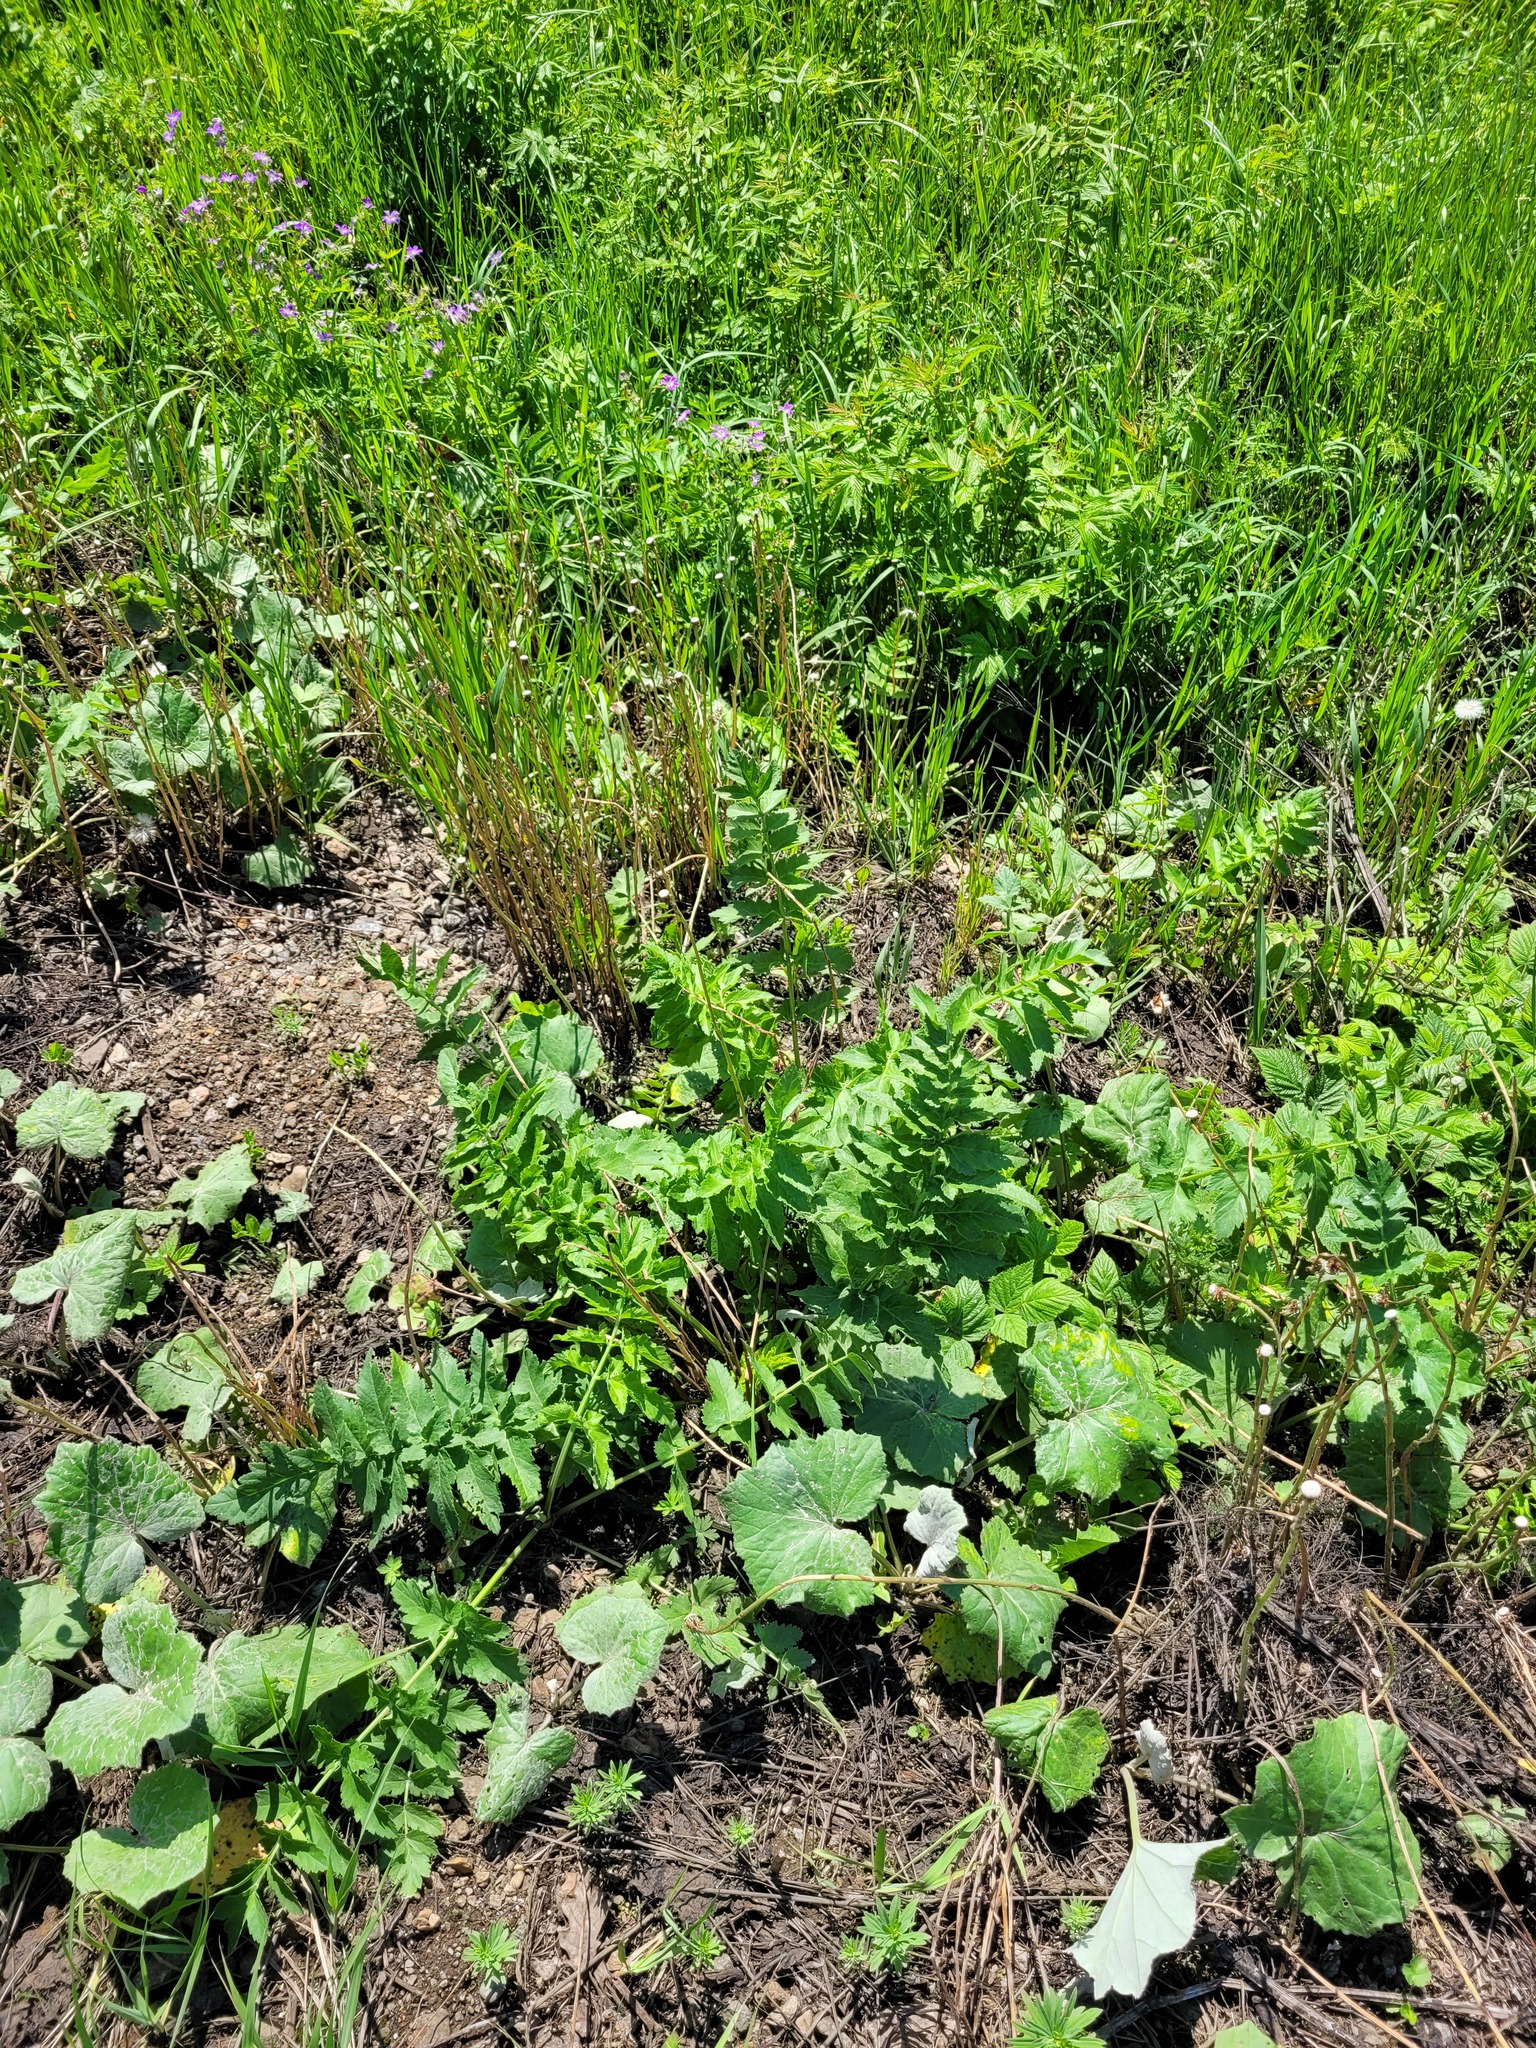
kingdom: Plantae
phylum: Tracheophyta
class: Magnoliopsida
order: Apiales
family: Apiaceae
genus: Pastinaca
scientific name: Pastinaca sativa
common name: Wild parsnip
